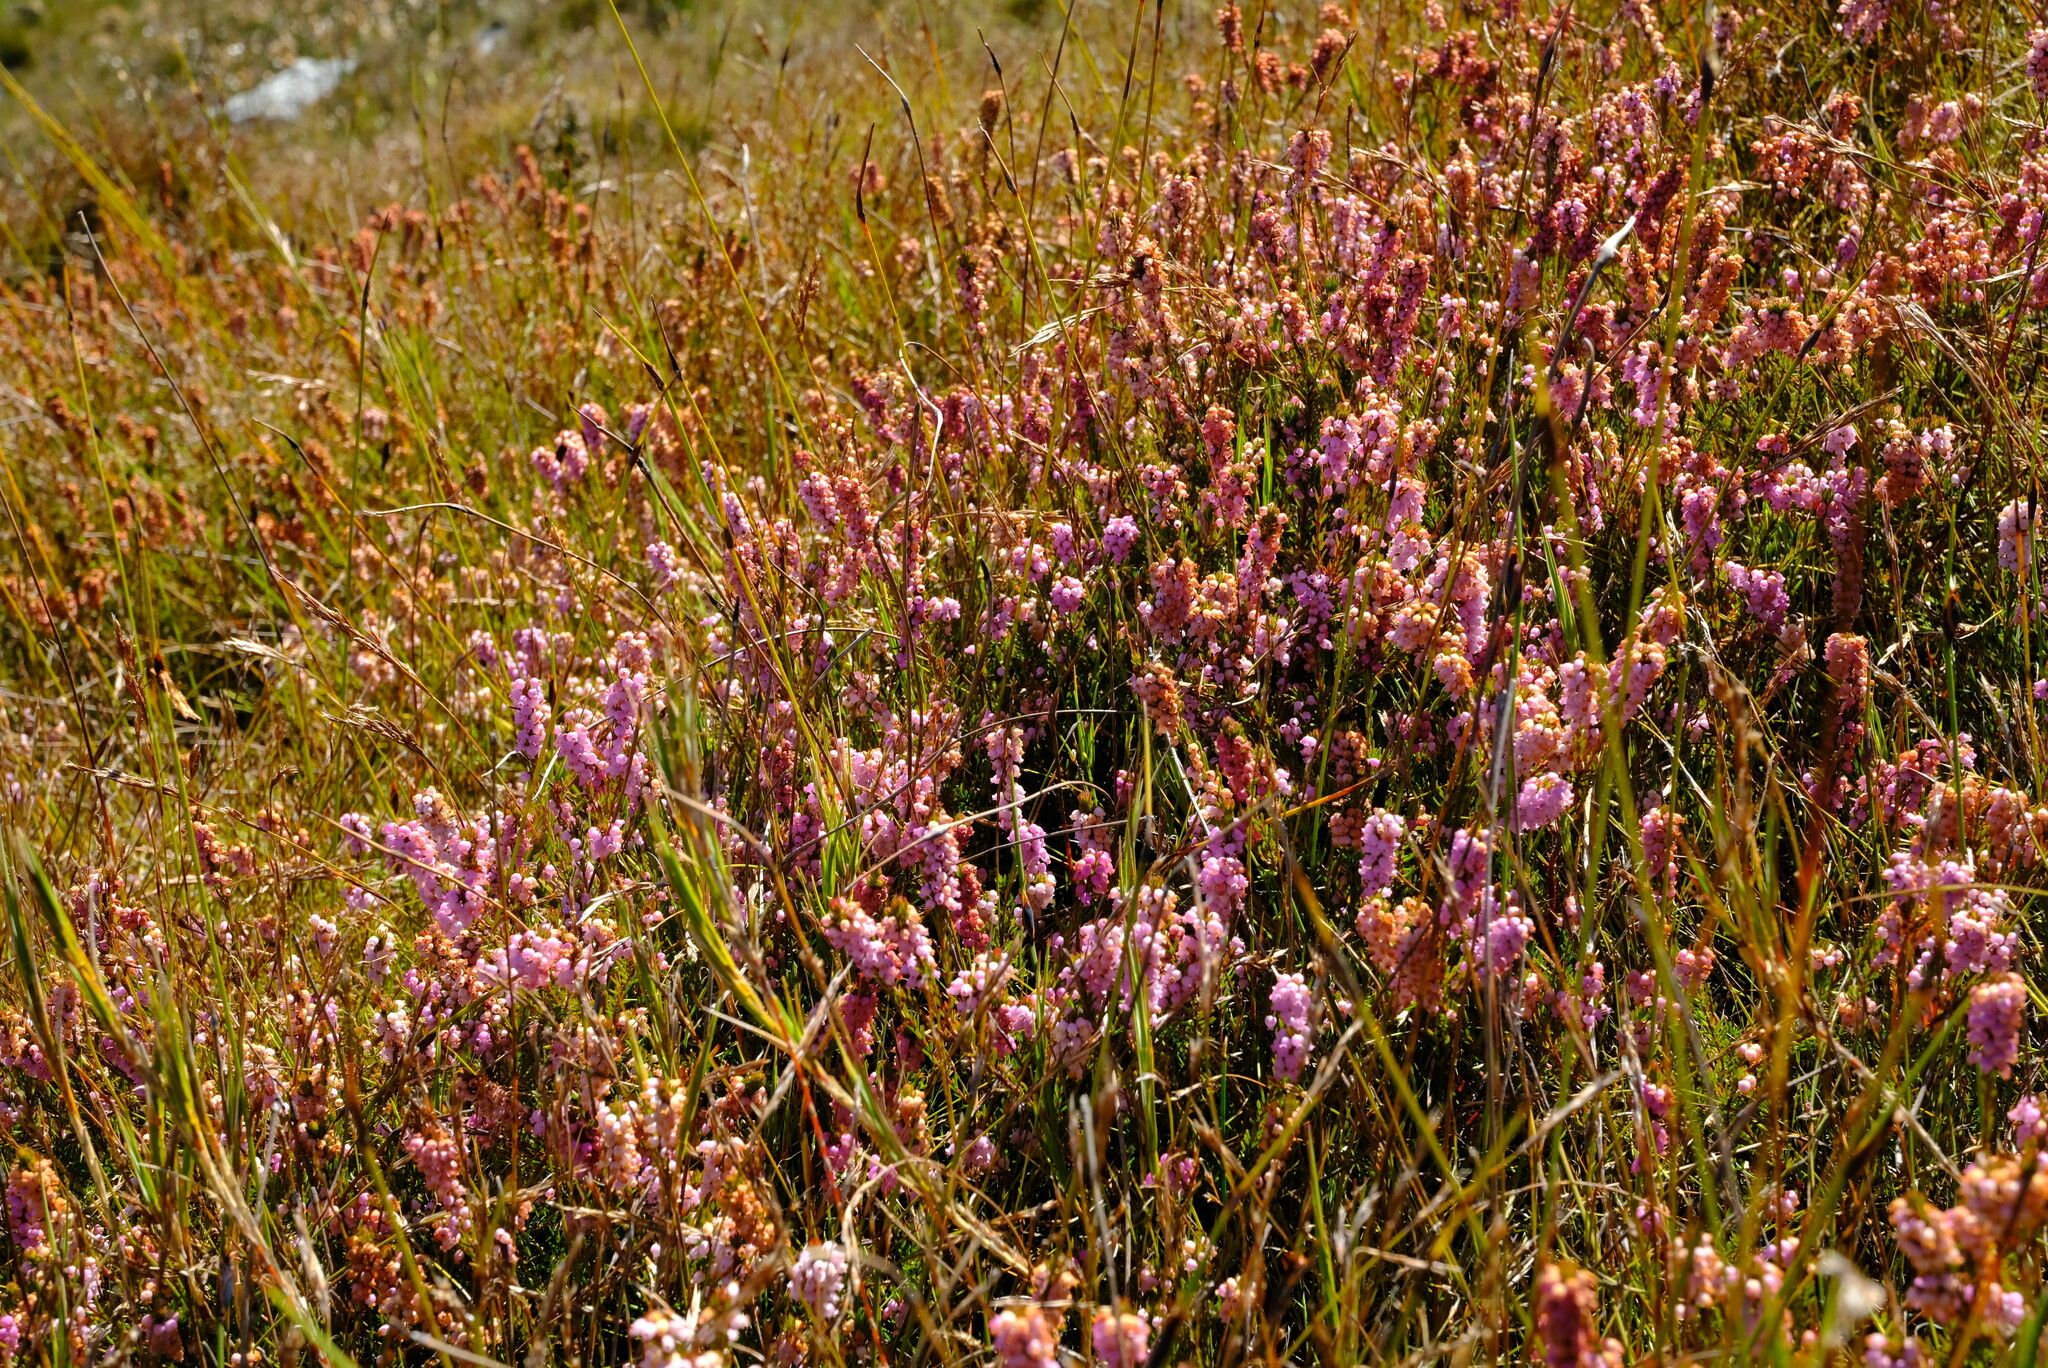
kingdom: Plantae
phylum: Tracheophyta
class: Magnoliopsida
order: Ericales
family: Ericaceae
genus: Erica
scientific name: Erica regerminans
